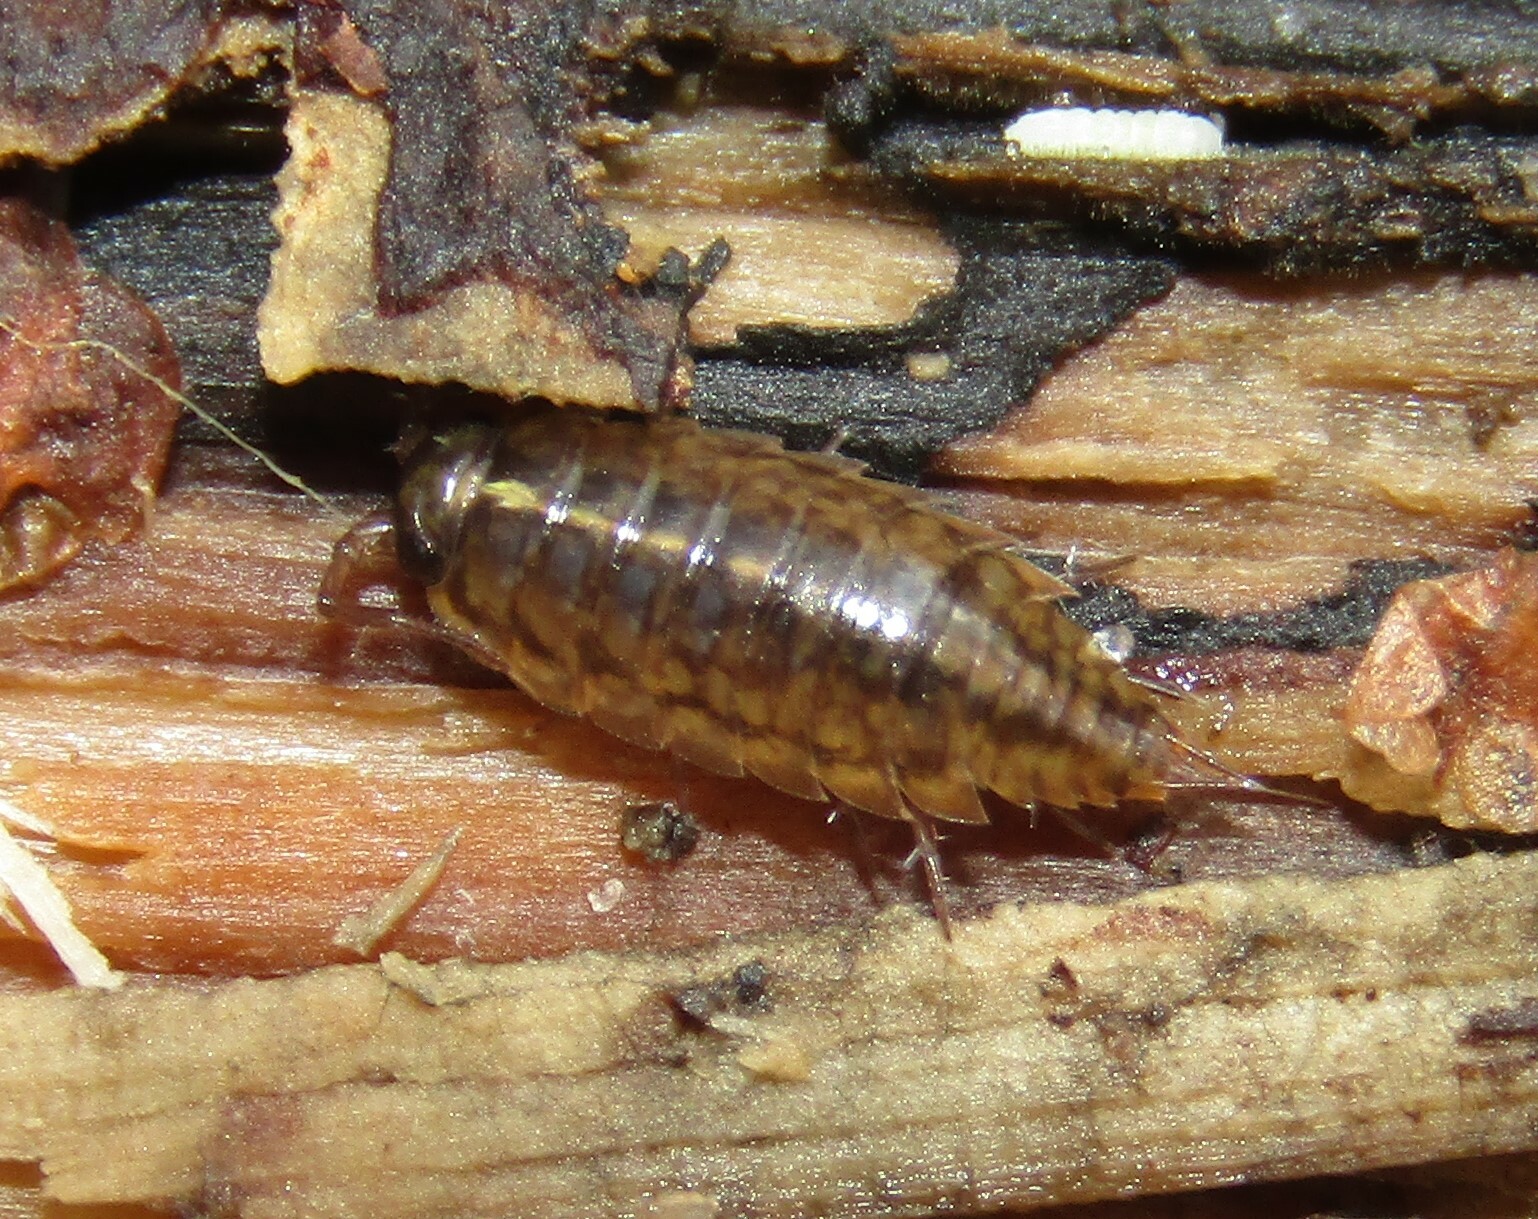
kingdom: Animalia
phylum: Arthropoda
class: Malacostraca
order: Isopoda
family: Ligiidae
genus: Ligidium
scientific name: Ligidium hypnorum
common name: Moss slater
